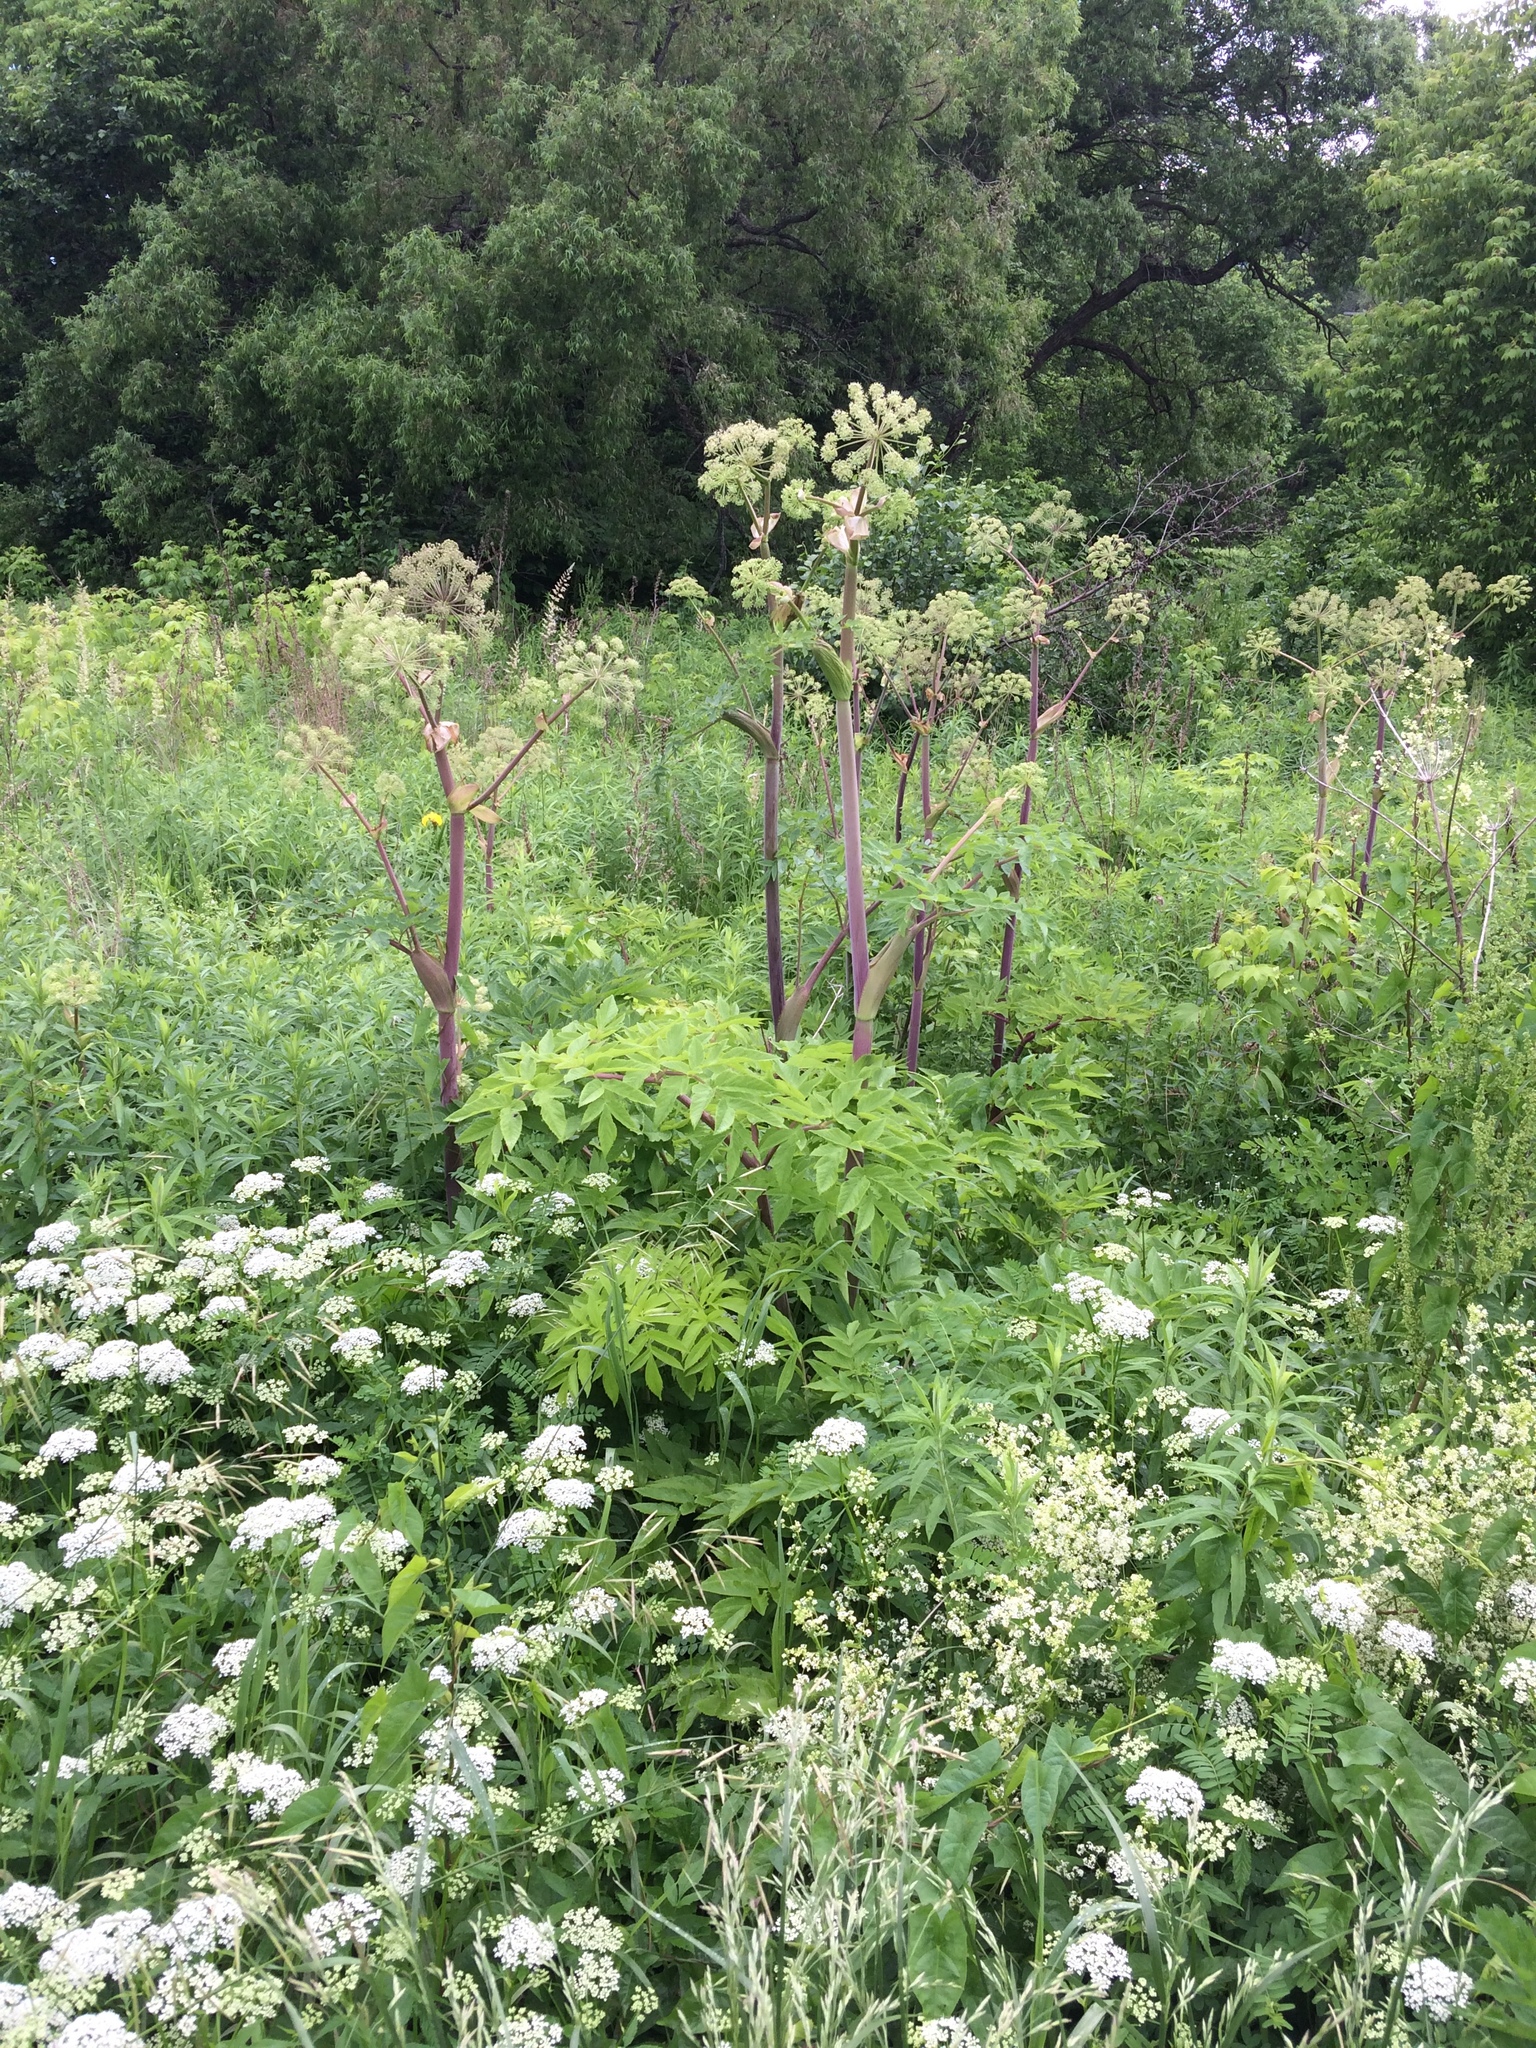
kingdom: Plantae
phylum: Tracheophyta
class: Magnoliopsida
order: Apiales
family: Apiaceae
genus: Angelica
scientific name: Angelica atropurpurea
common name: Great angelica
